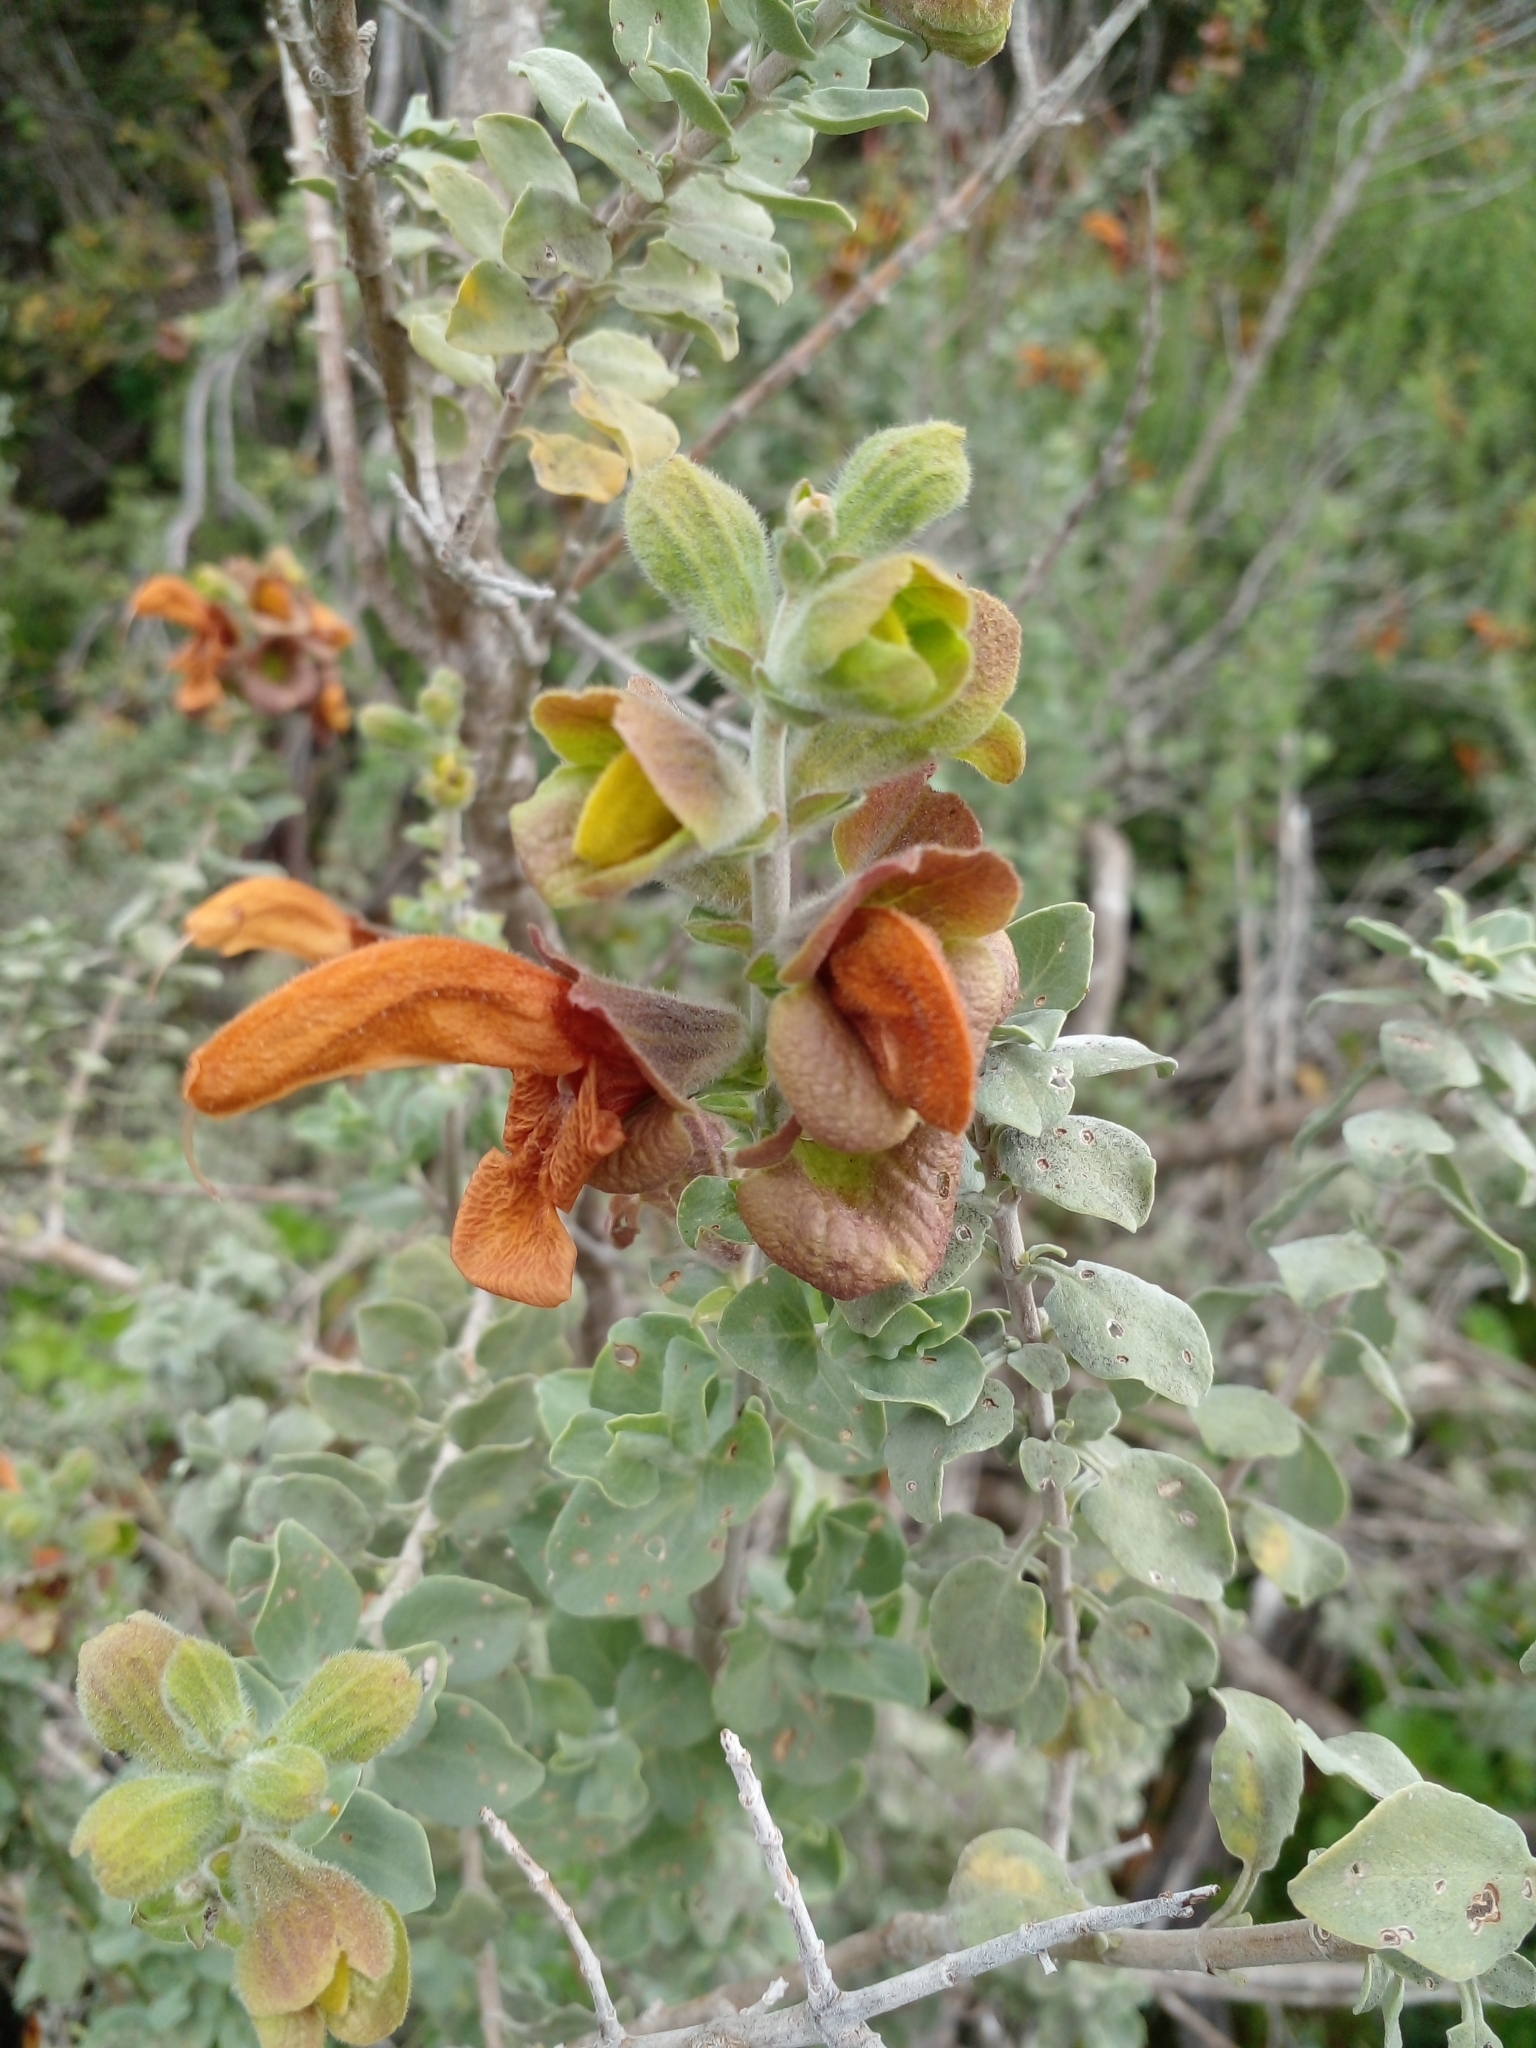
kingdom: Plantae
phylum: Tracheophyta
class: Magnoliopsida
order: Lamiales
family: Lamiaceae
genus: Salvia
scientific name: Salvia aurea
